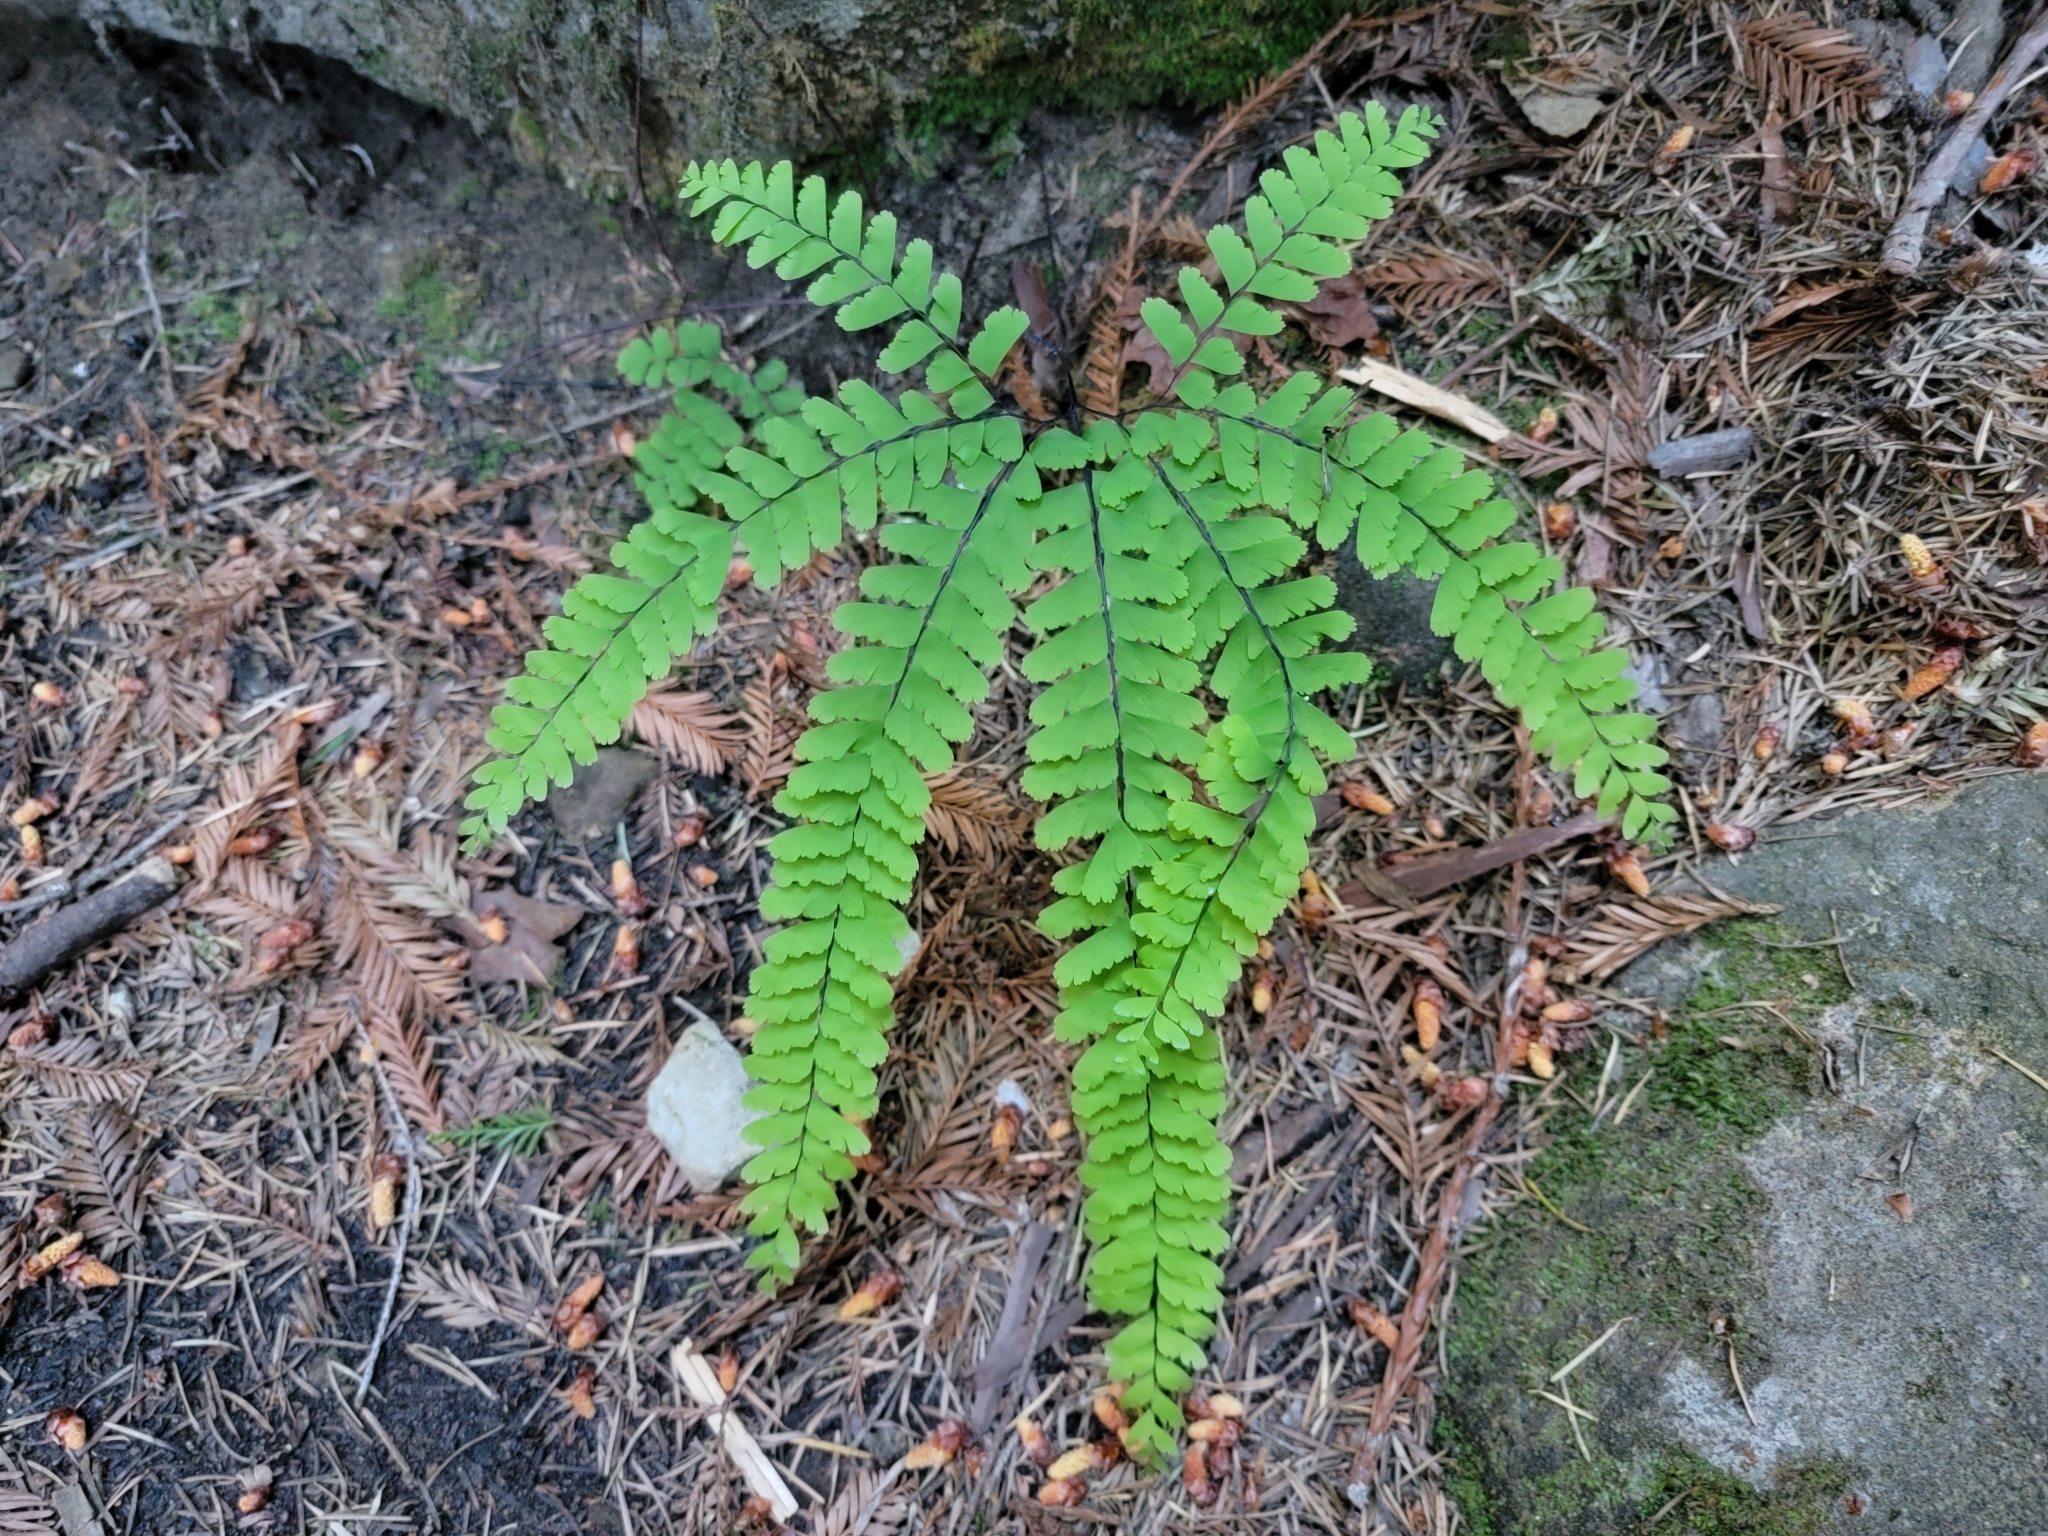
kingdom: Plantae
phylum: Tracheophyta
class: Polypodiopsida
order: Polypodiales
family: Pteridaceae
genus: Adiantum
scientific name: Adiantum aleuticum
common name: Aleutian maidenhair fern
